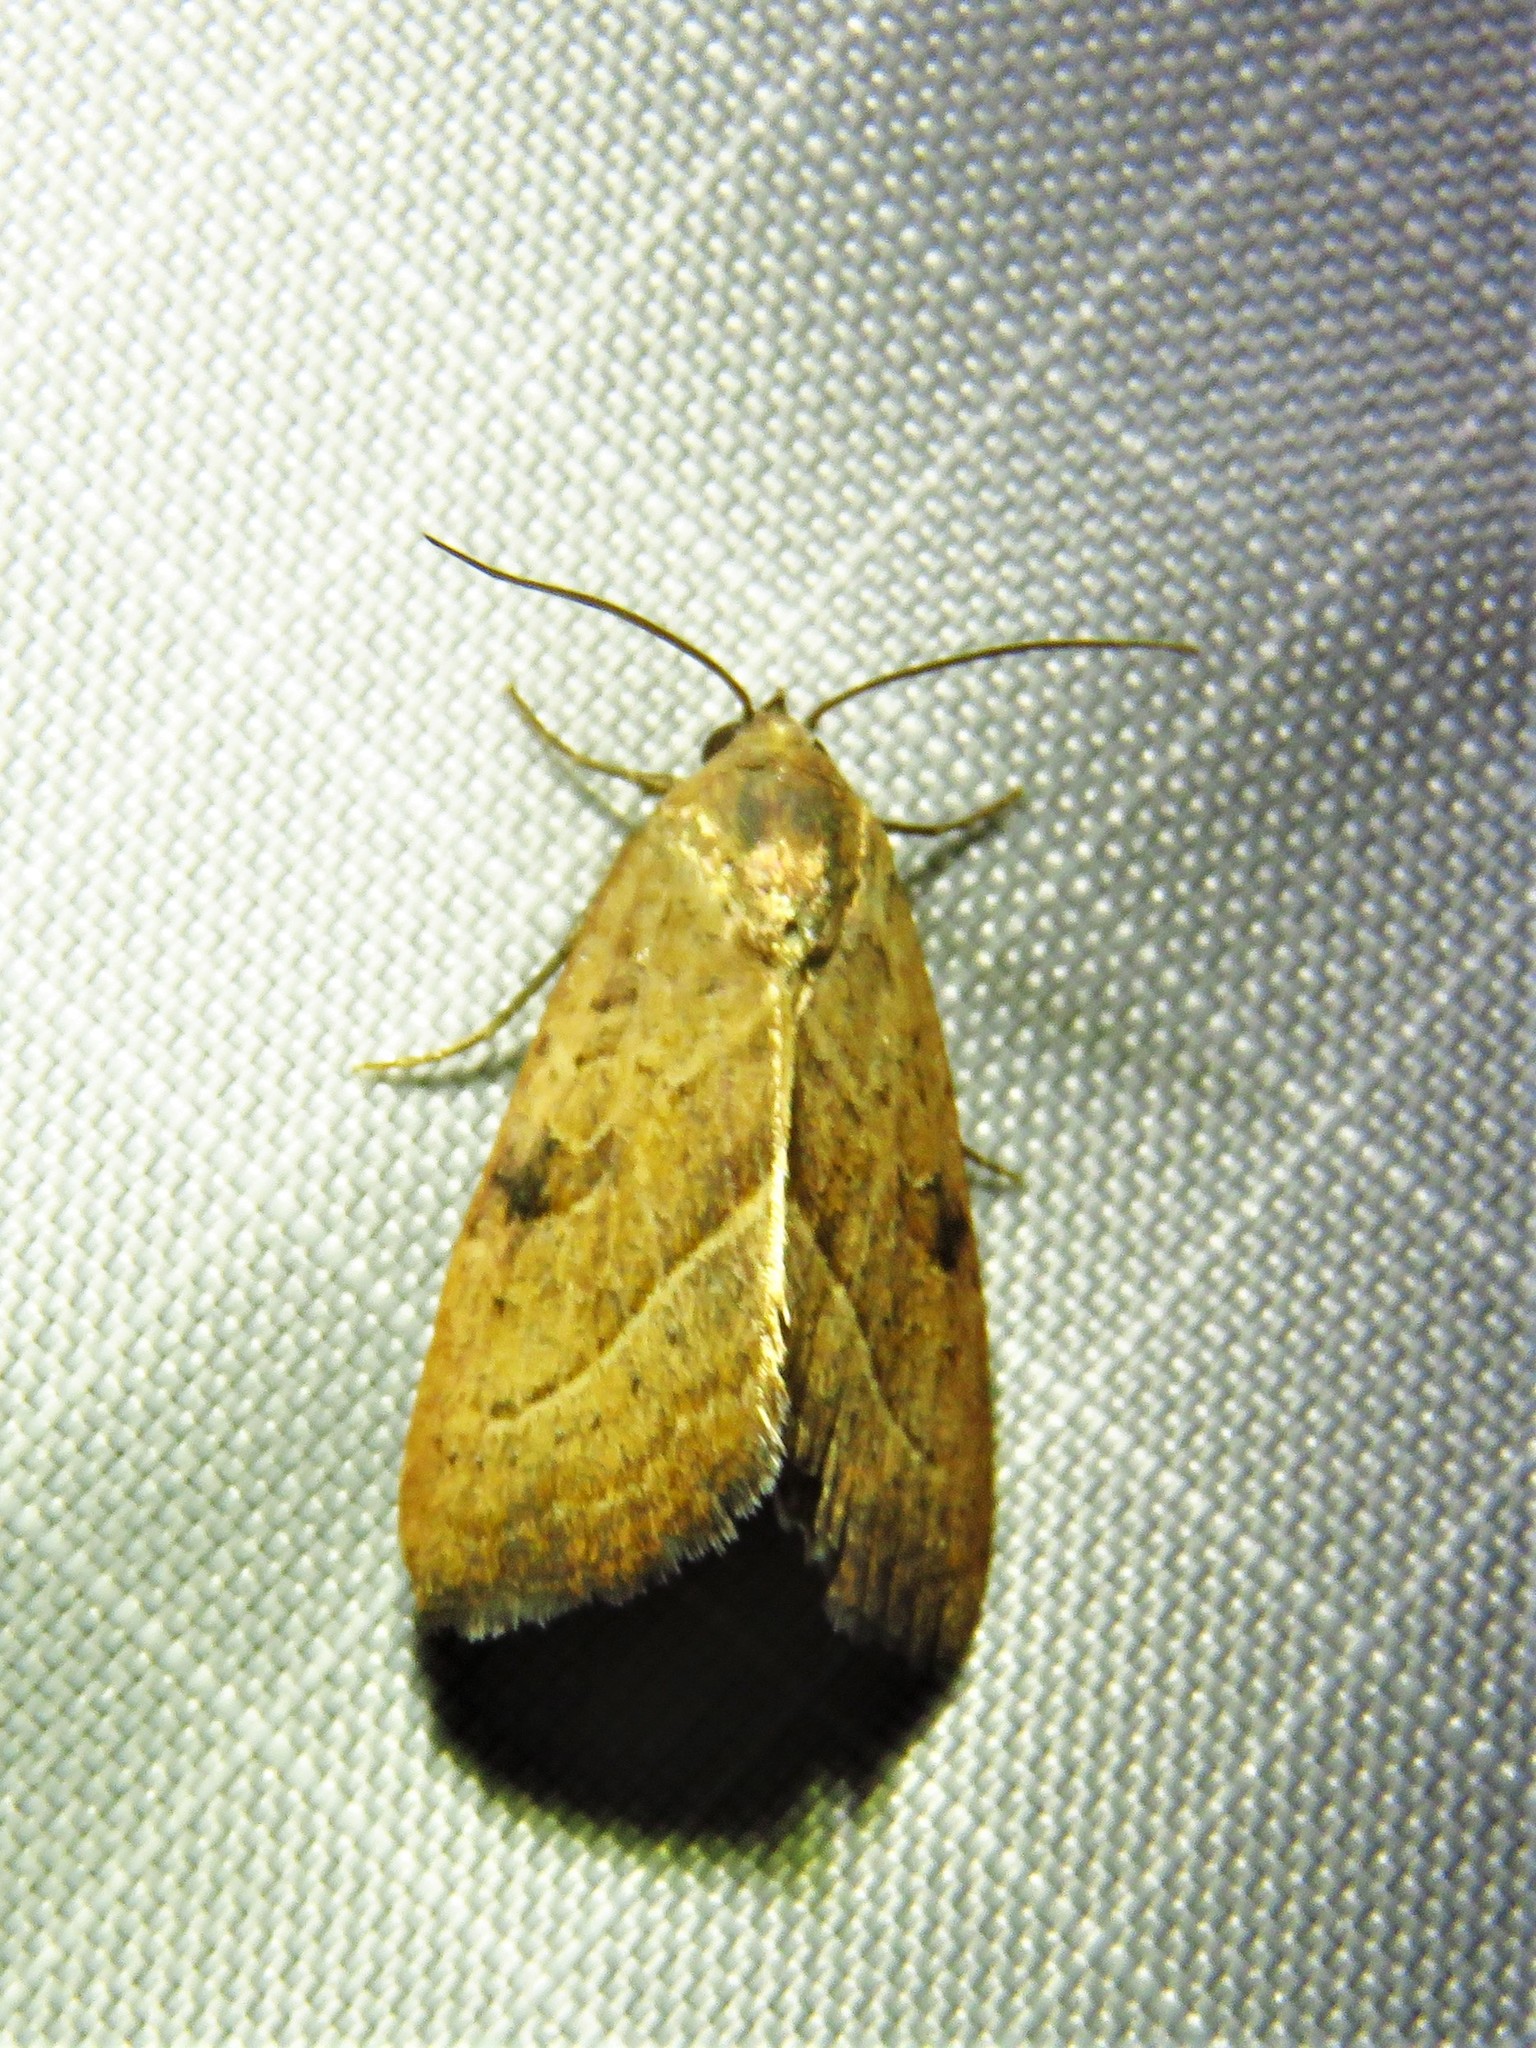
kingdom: Animalia
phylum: Arthropoda
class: Insecta
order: Lepidoptera
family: Noctuidae
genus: Galgula
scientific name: Galgula partita
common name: Wedgeling
